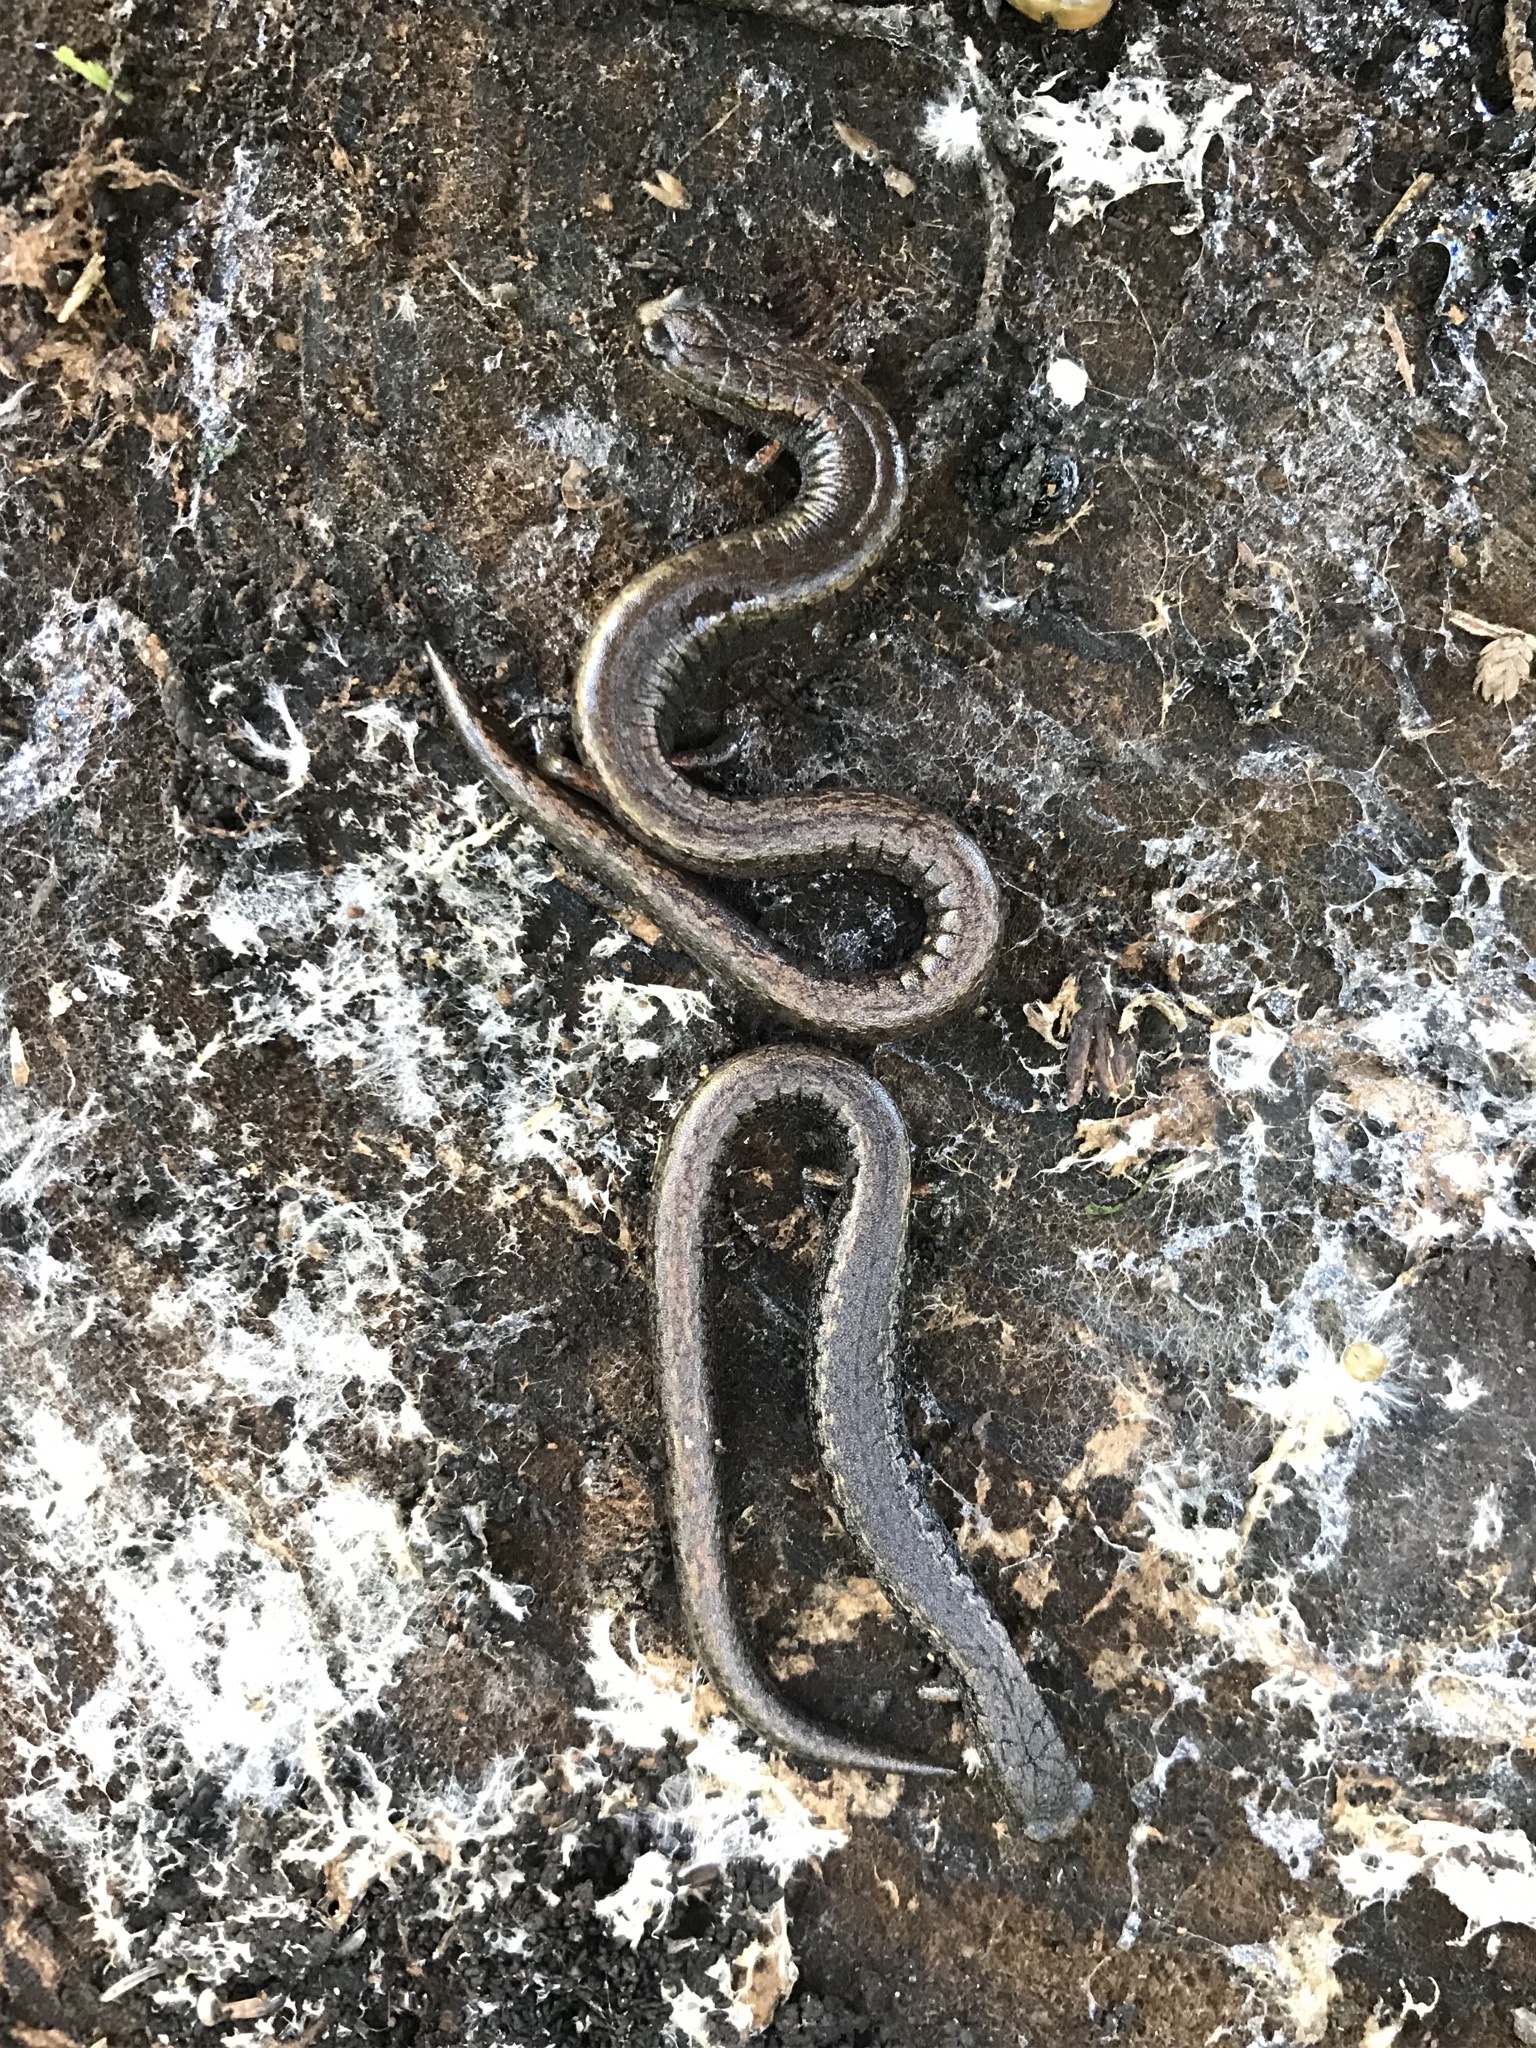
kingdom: Animalia
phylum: Chordata
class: Amphibia
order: Caudata
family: Plethodontidae
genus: Batrachoseps
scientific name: Batrachoseps attenuatus
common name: California slender salamander
